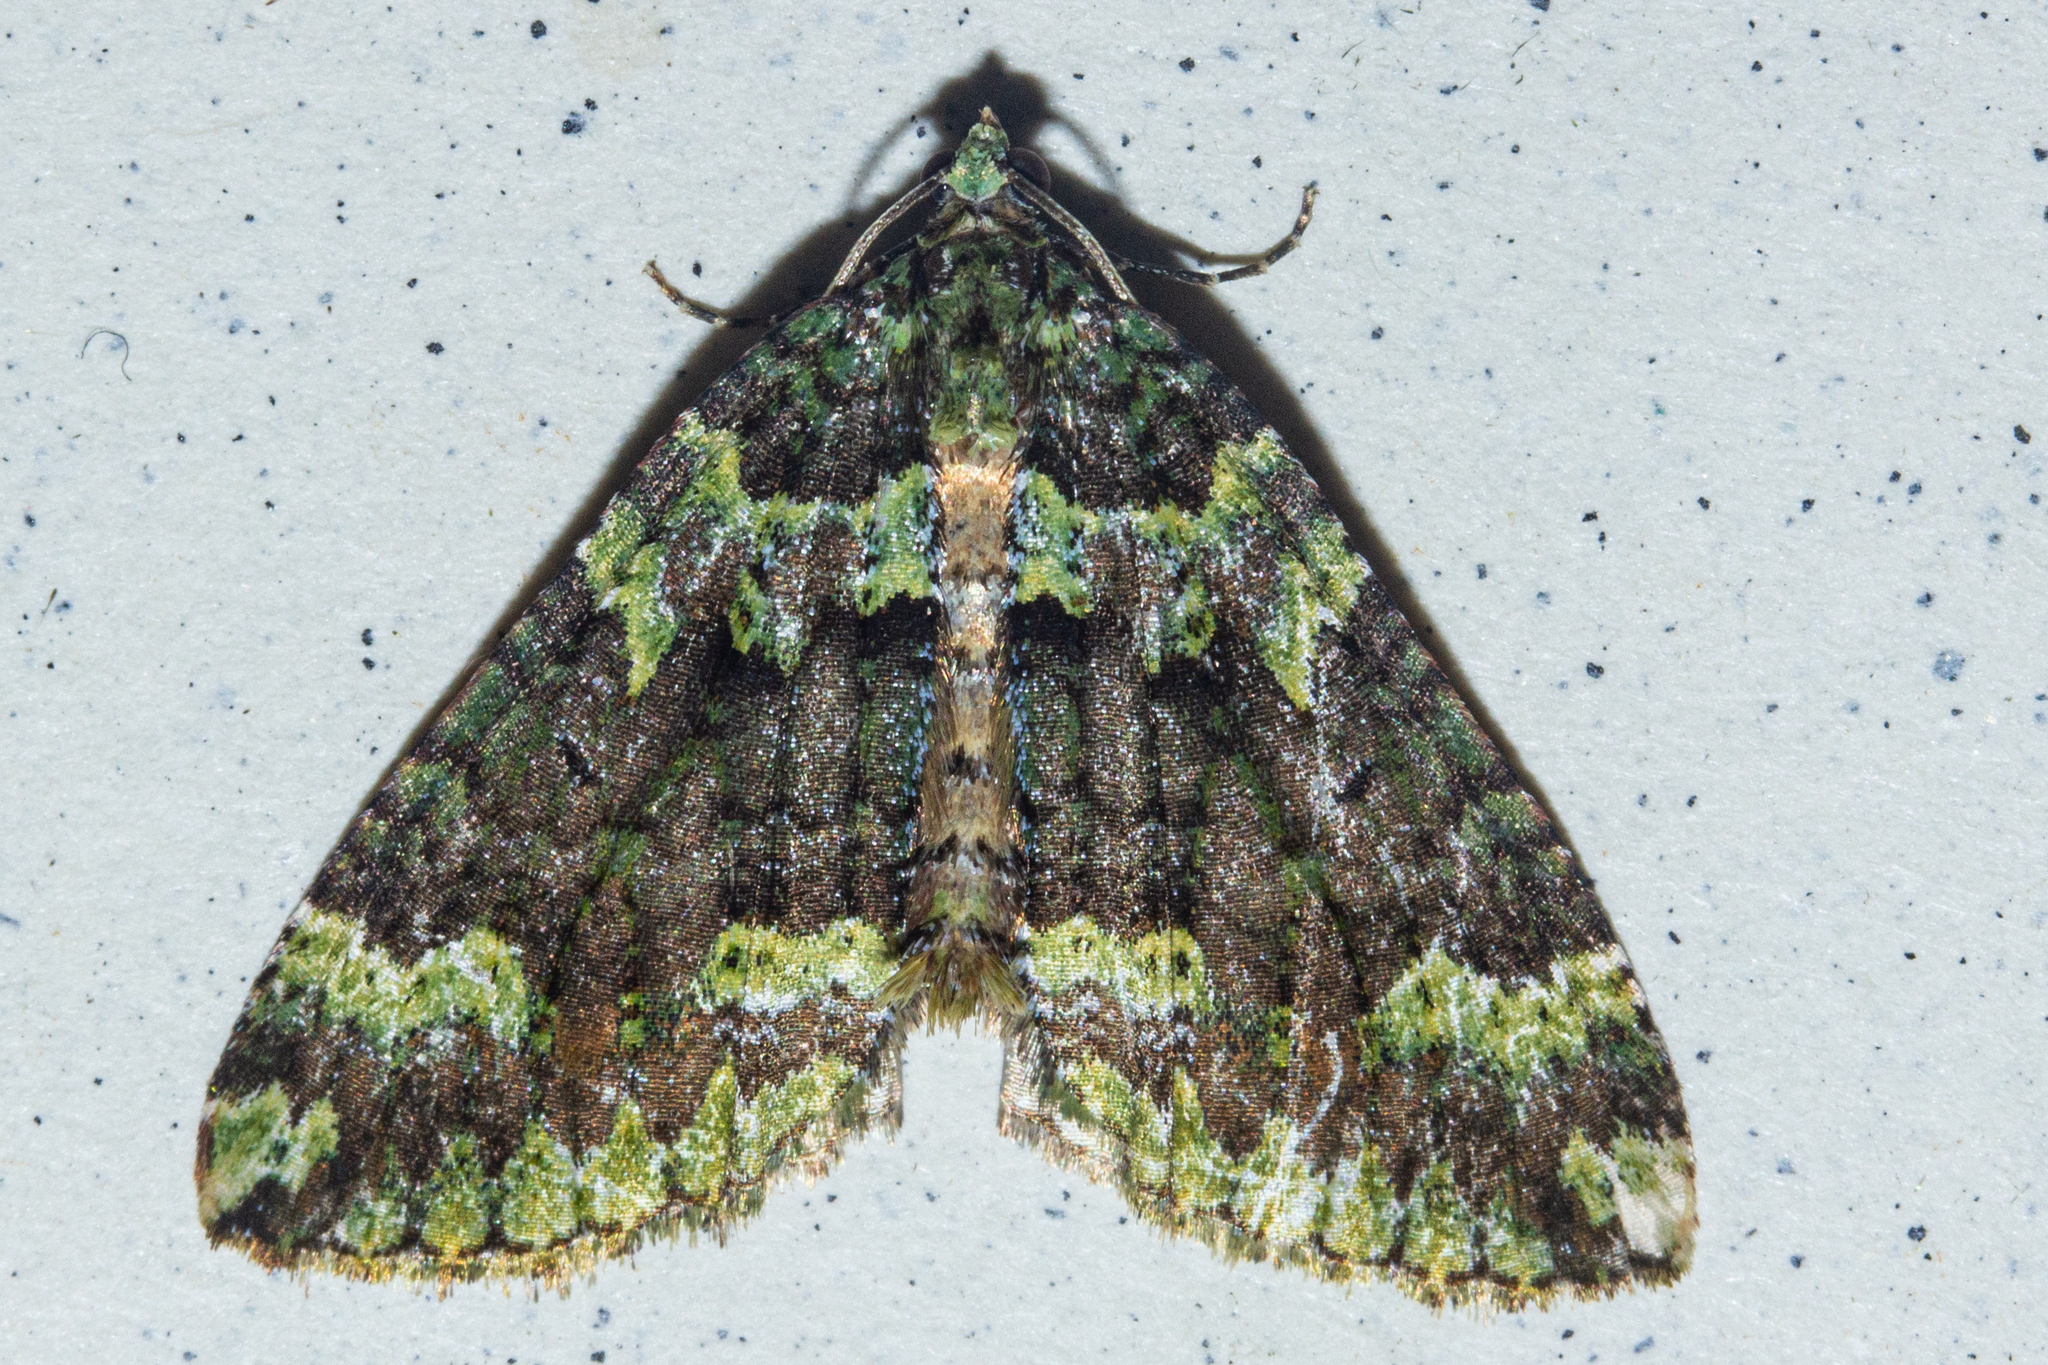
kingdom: Animalia
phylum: Arthropoda
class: Insecta
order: Lepidoptera
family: Geometridae
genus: Austrocidaria
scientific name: Austrocidaria callichlora
